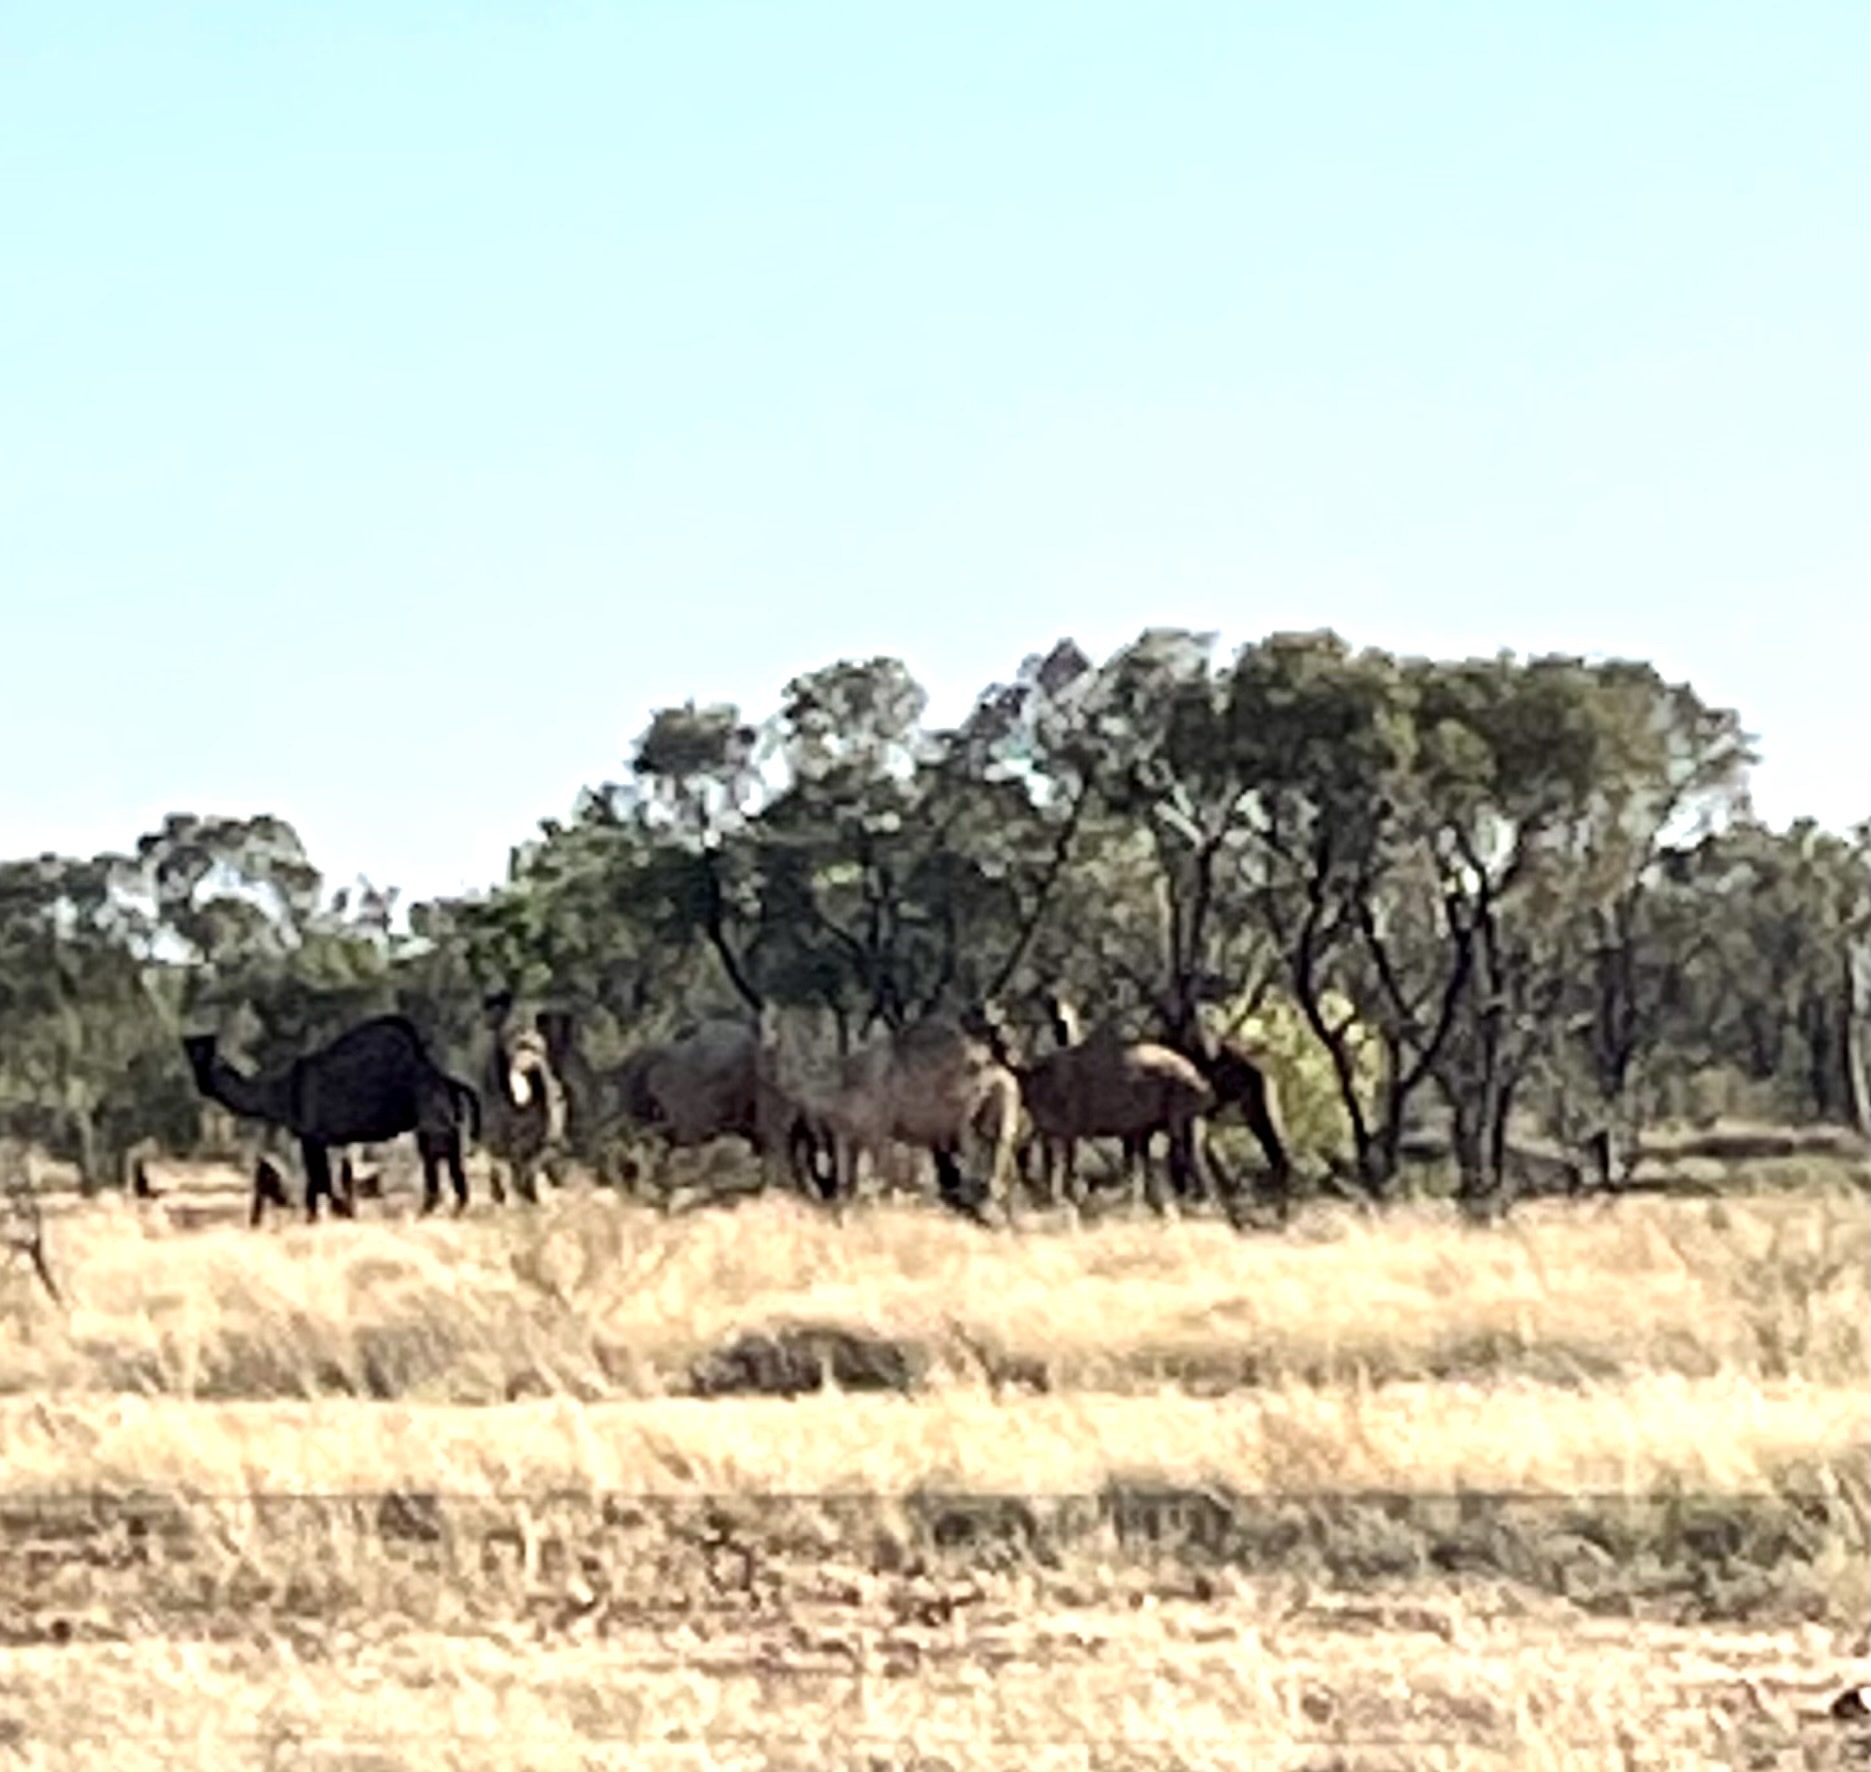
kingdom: Animalia
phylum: Chordata
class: Mammalia
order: Artiodactyla
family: Camelidae
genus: Camelus
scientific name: Camelus dromedarius
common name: One-humped camel
